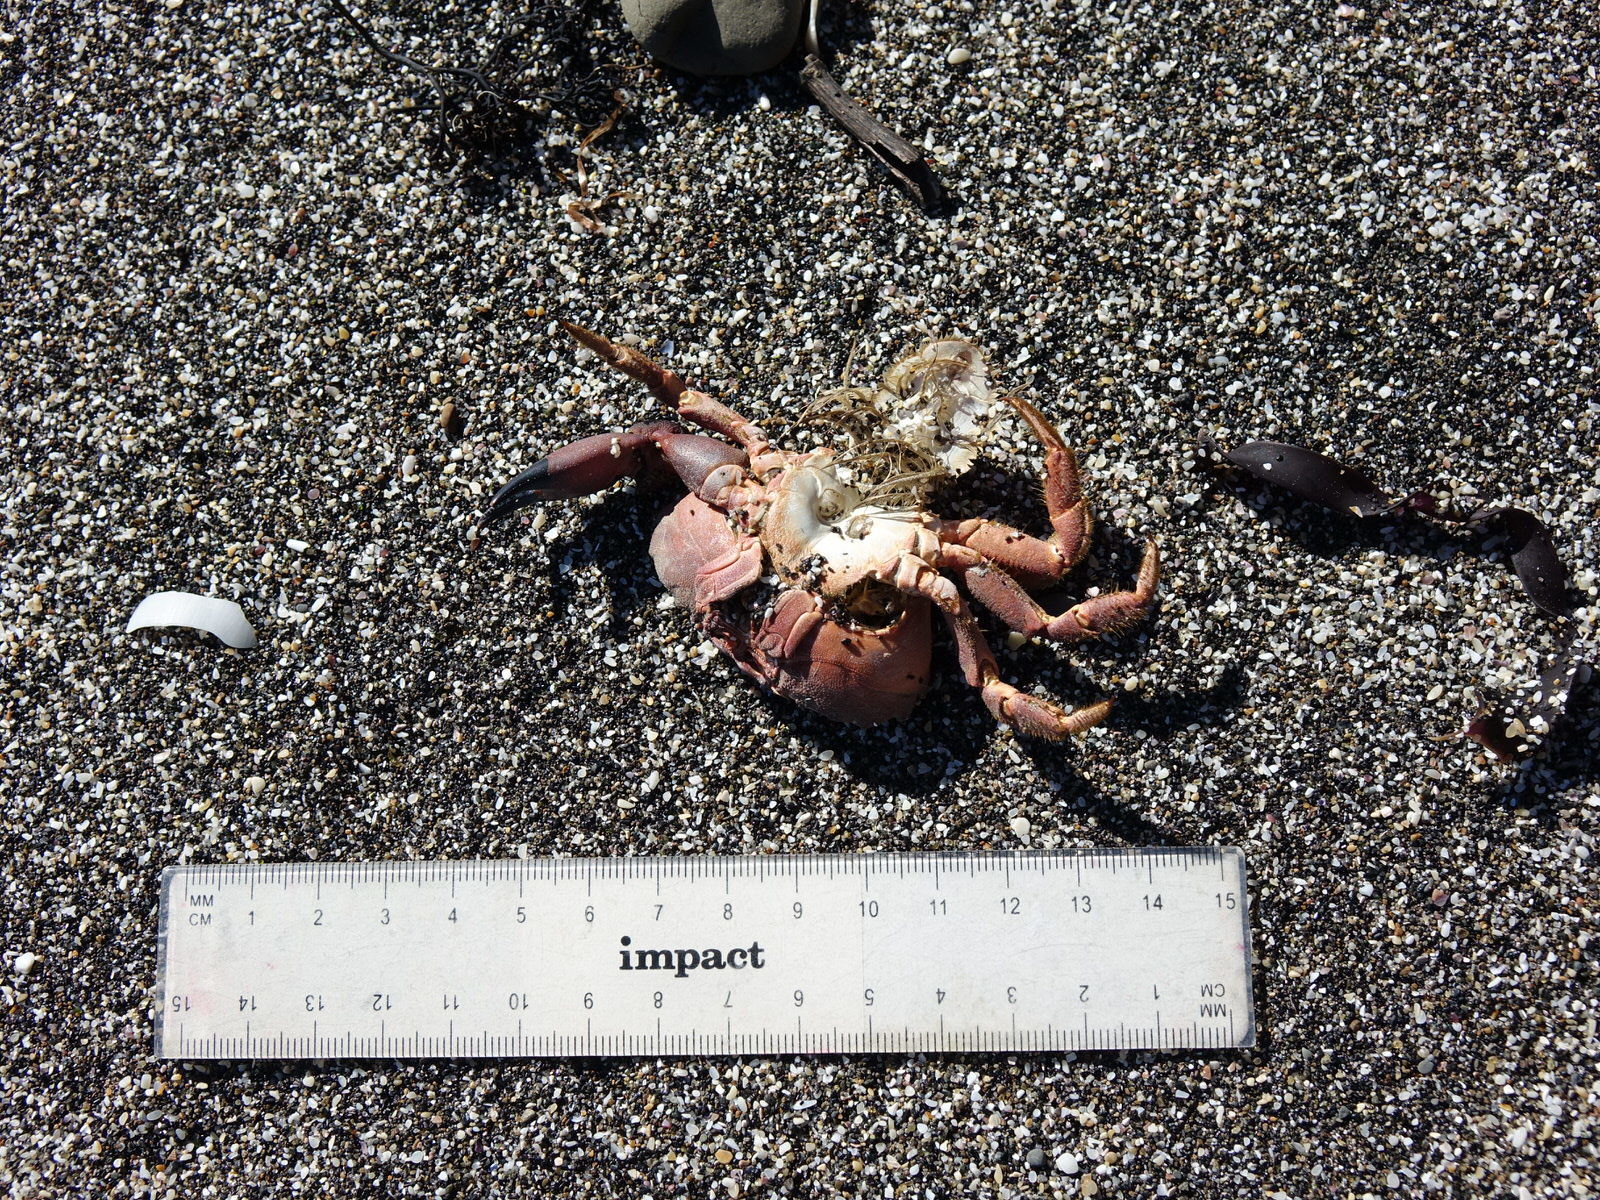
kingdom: Animalia
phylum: Arthropoda
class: Malacostraca
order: Decapoda
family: Oziidae
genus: Ozius
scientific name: Ozius deplanatus
